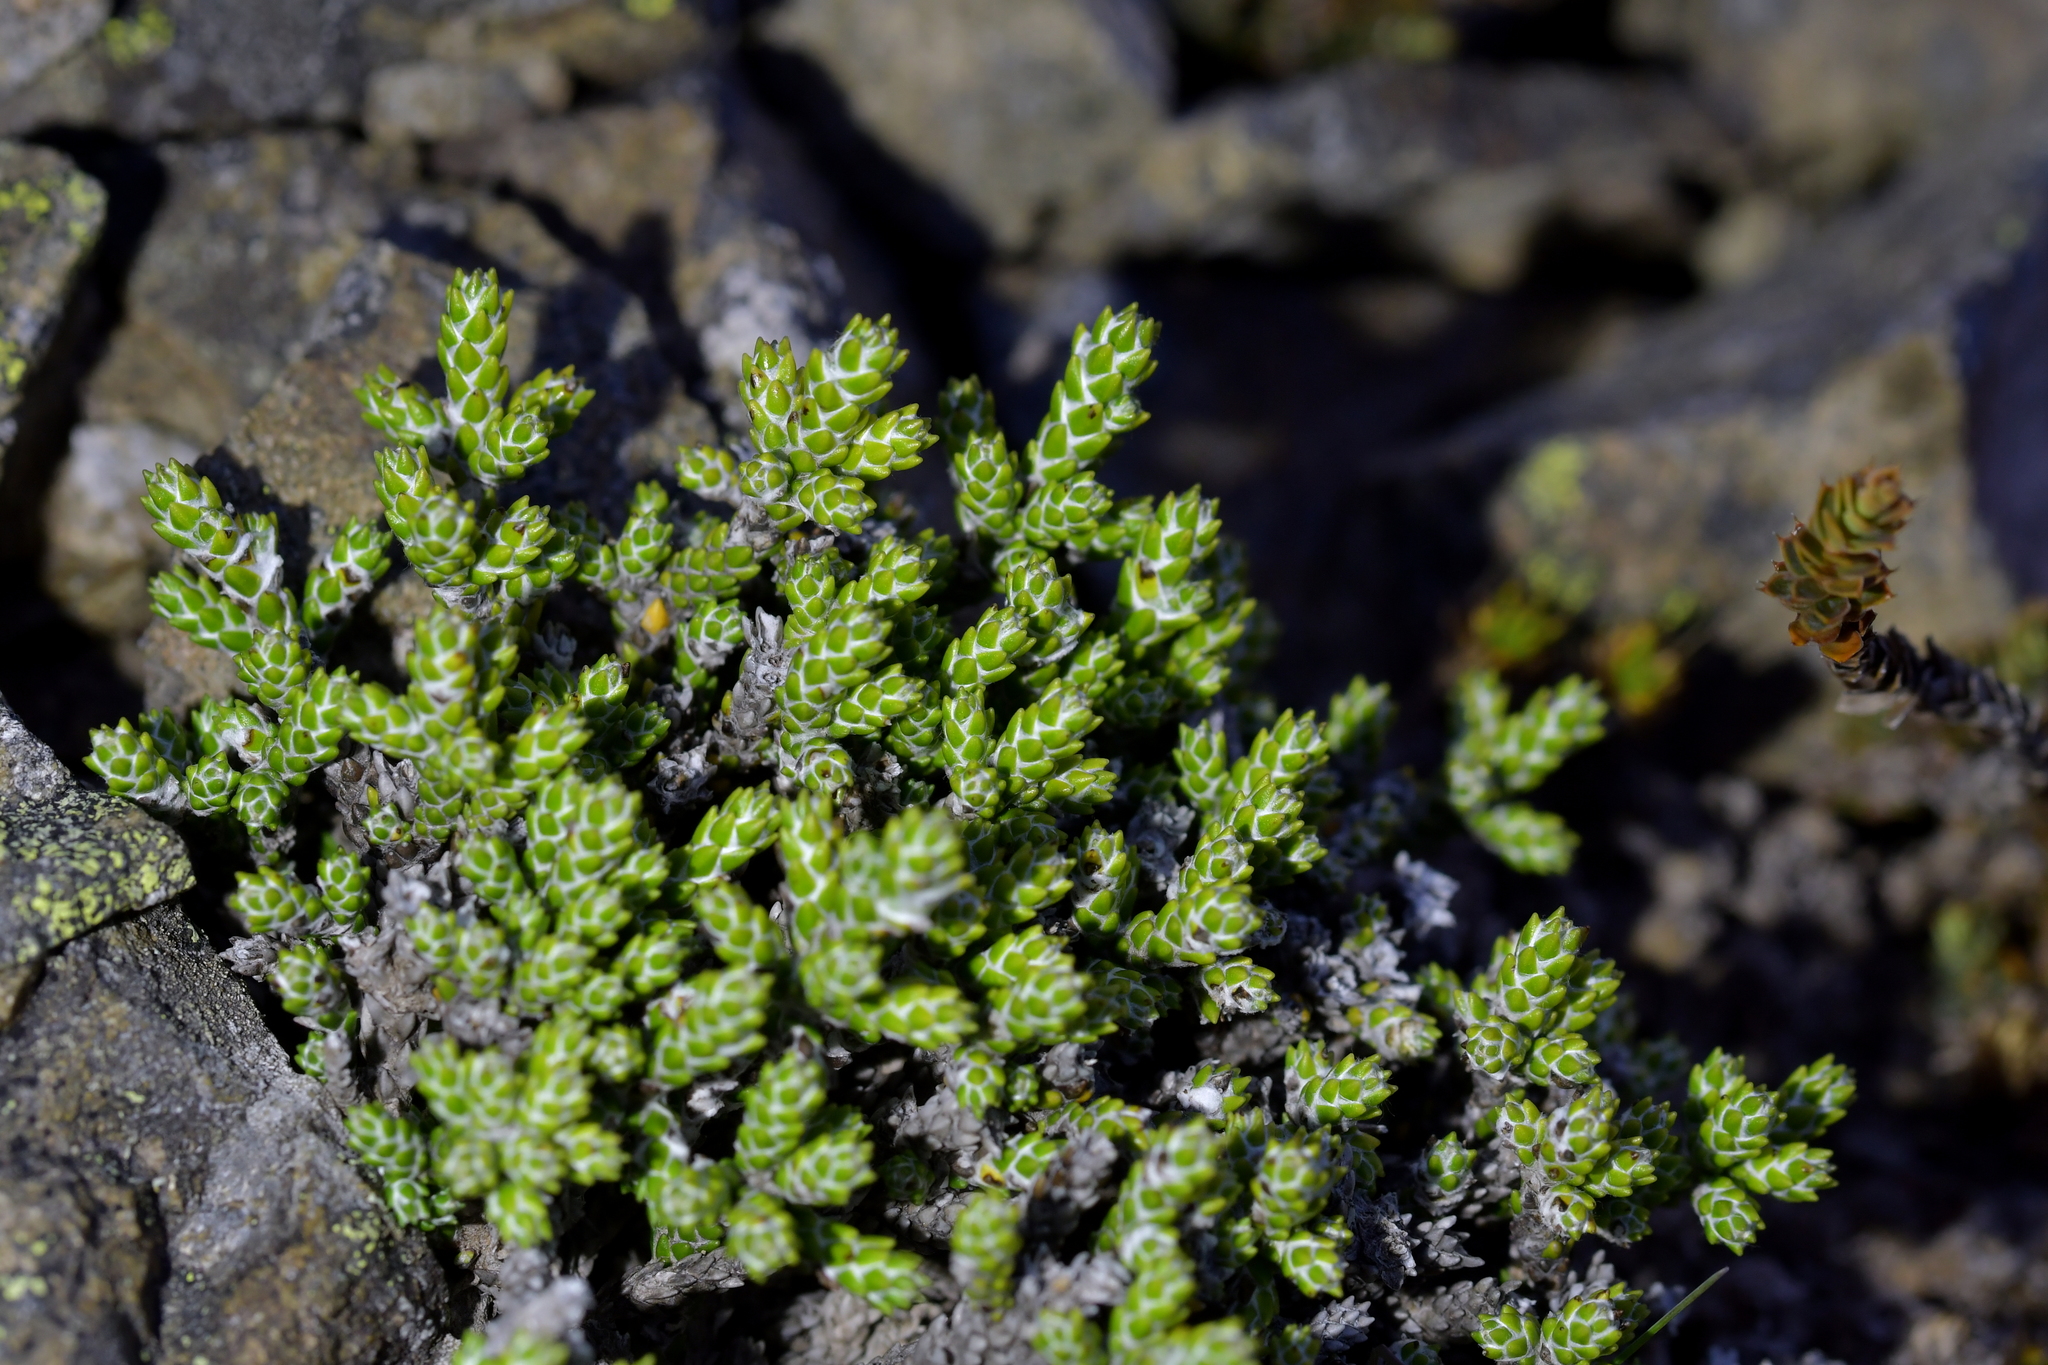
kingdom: Plantae
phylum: Tracheophyta
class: Magnoliopsida
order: Asterales
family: Asteraceae
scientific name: Asteraceae
